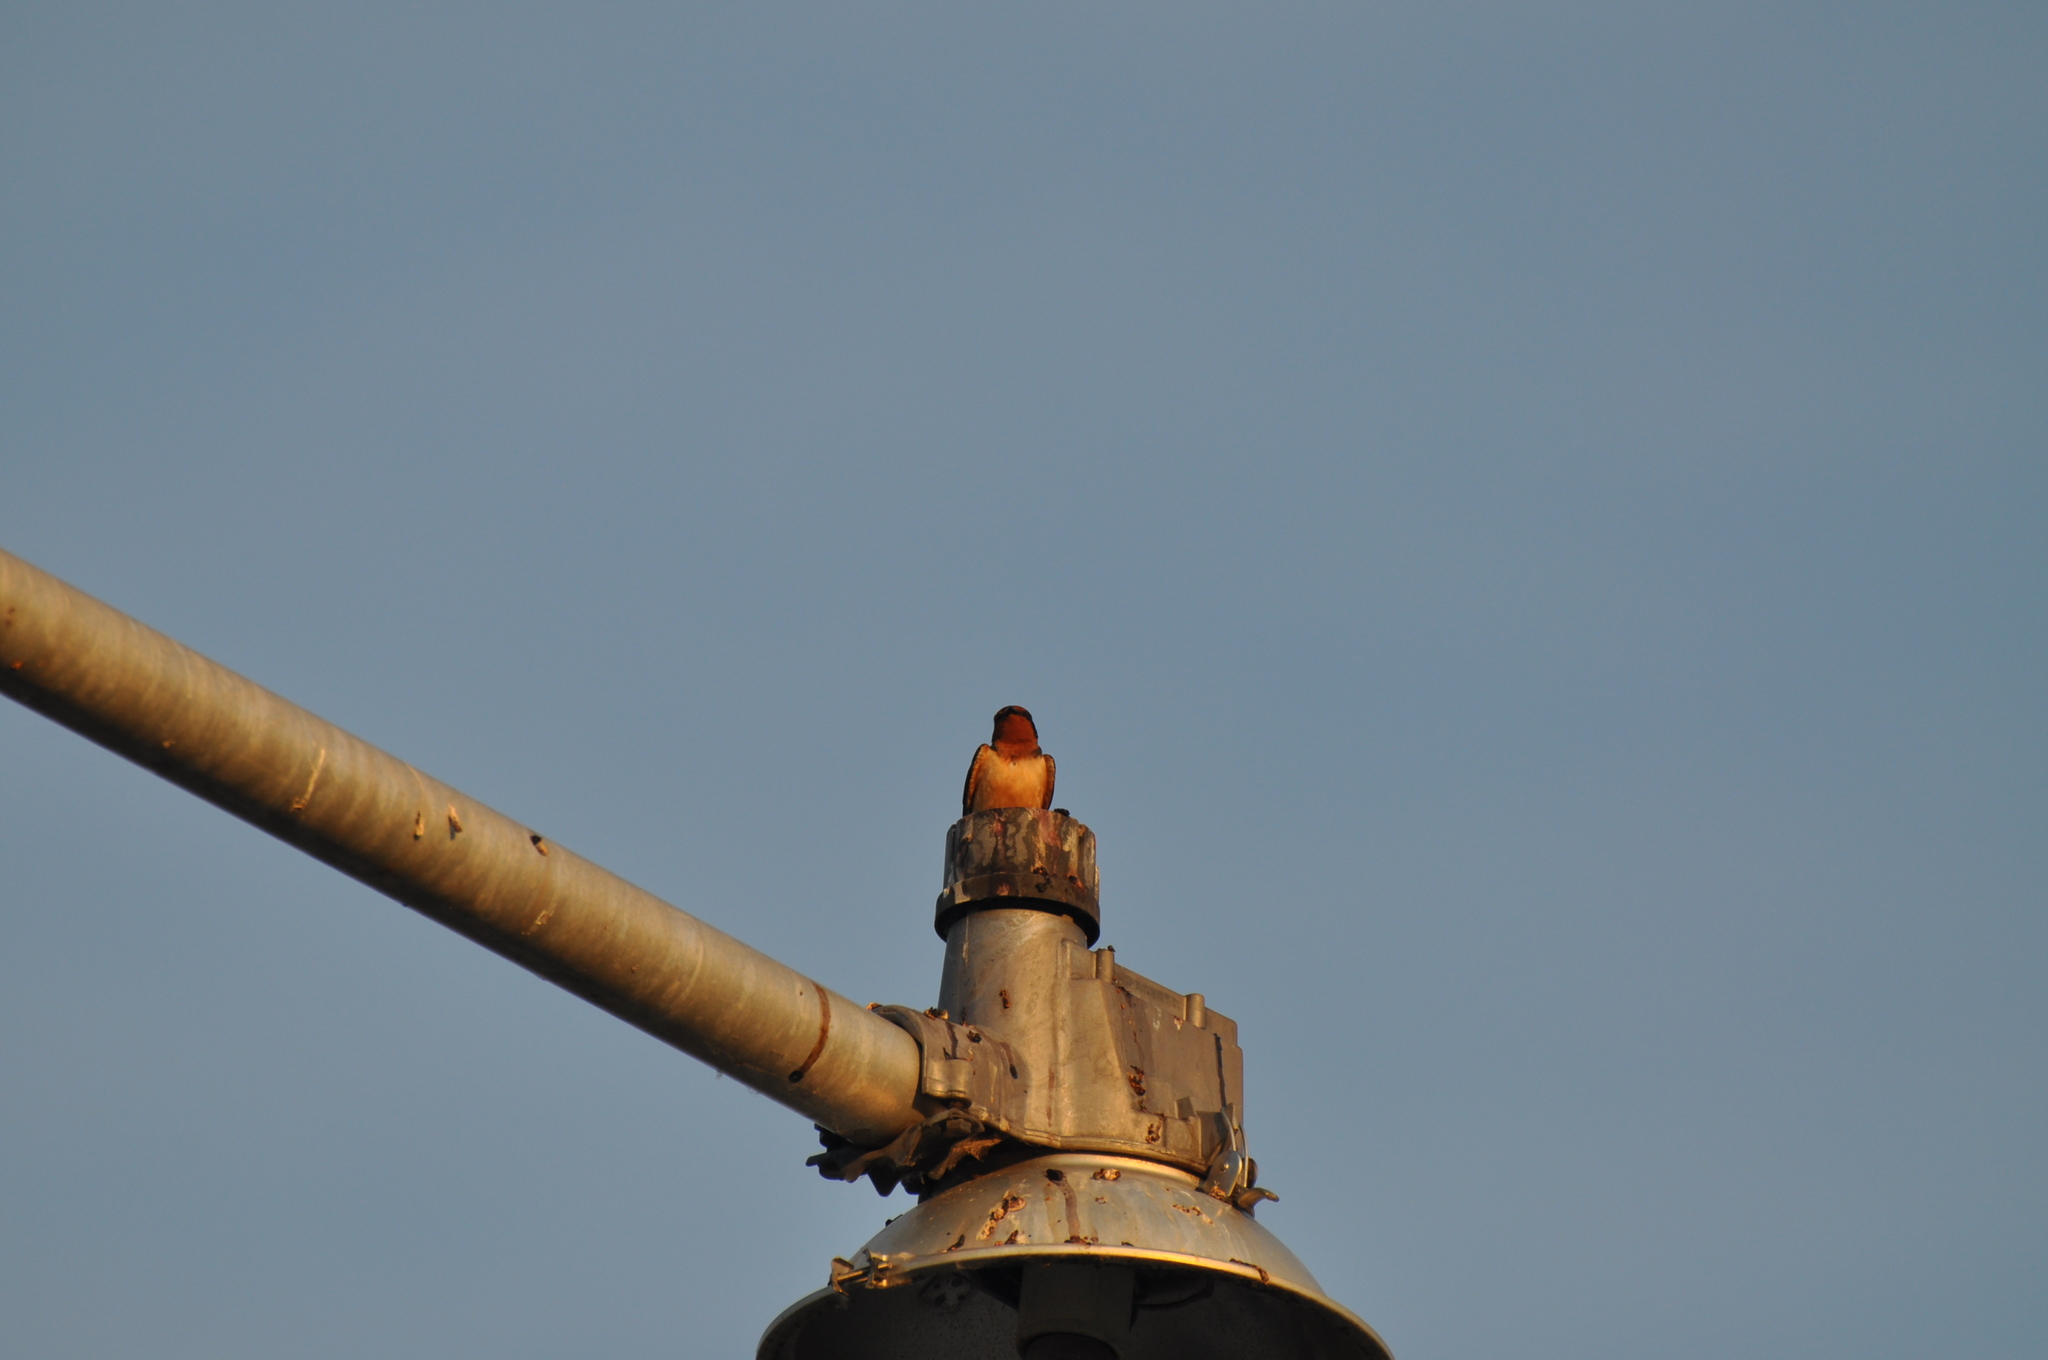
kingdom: Animalia
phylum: Chordata
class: Aves
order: Passeriformes
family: Hirundinidae
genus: Hirundo
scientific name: Hirundo rustica
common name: Barn swallow
